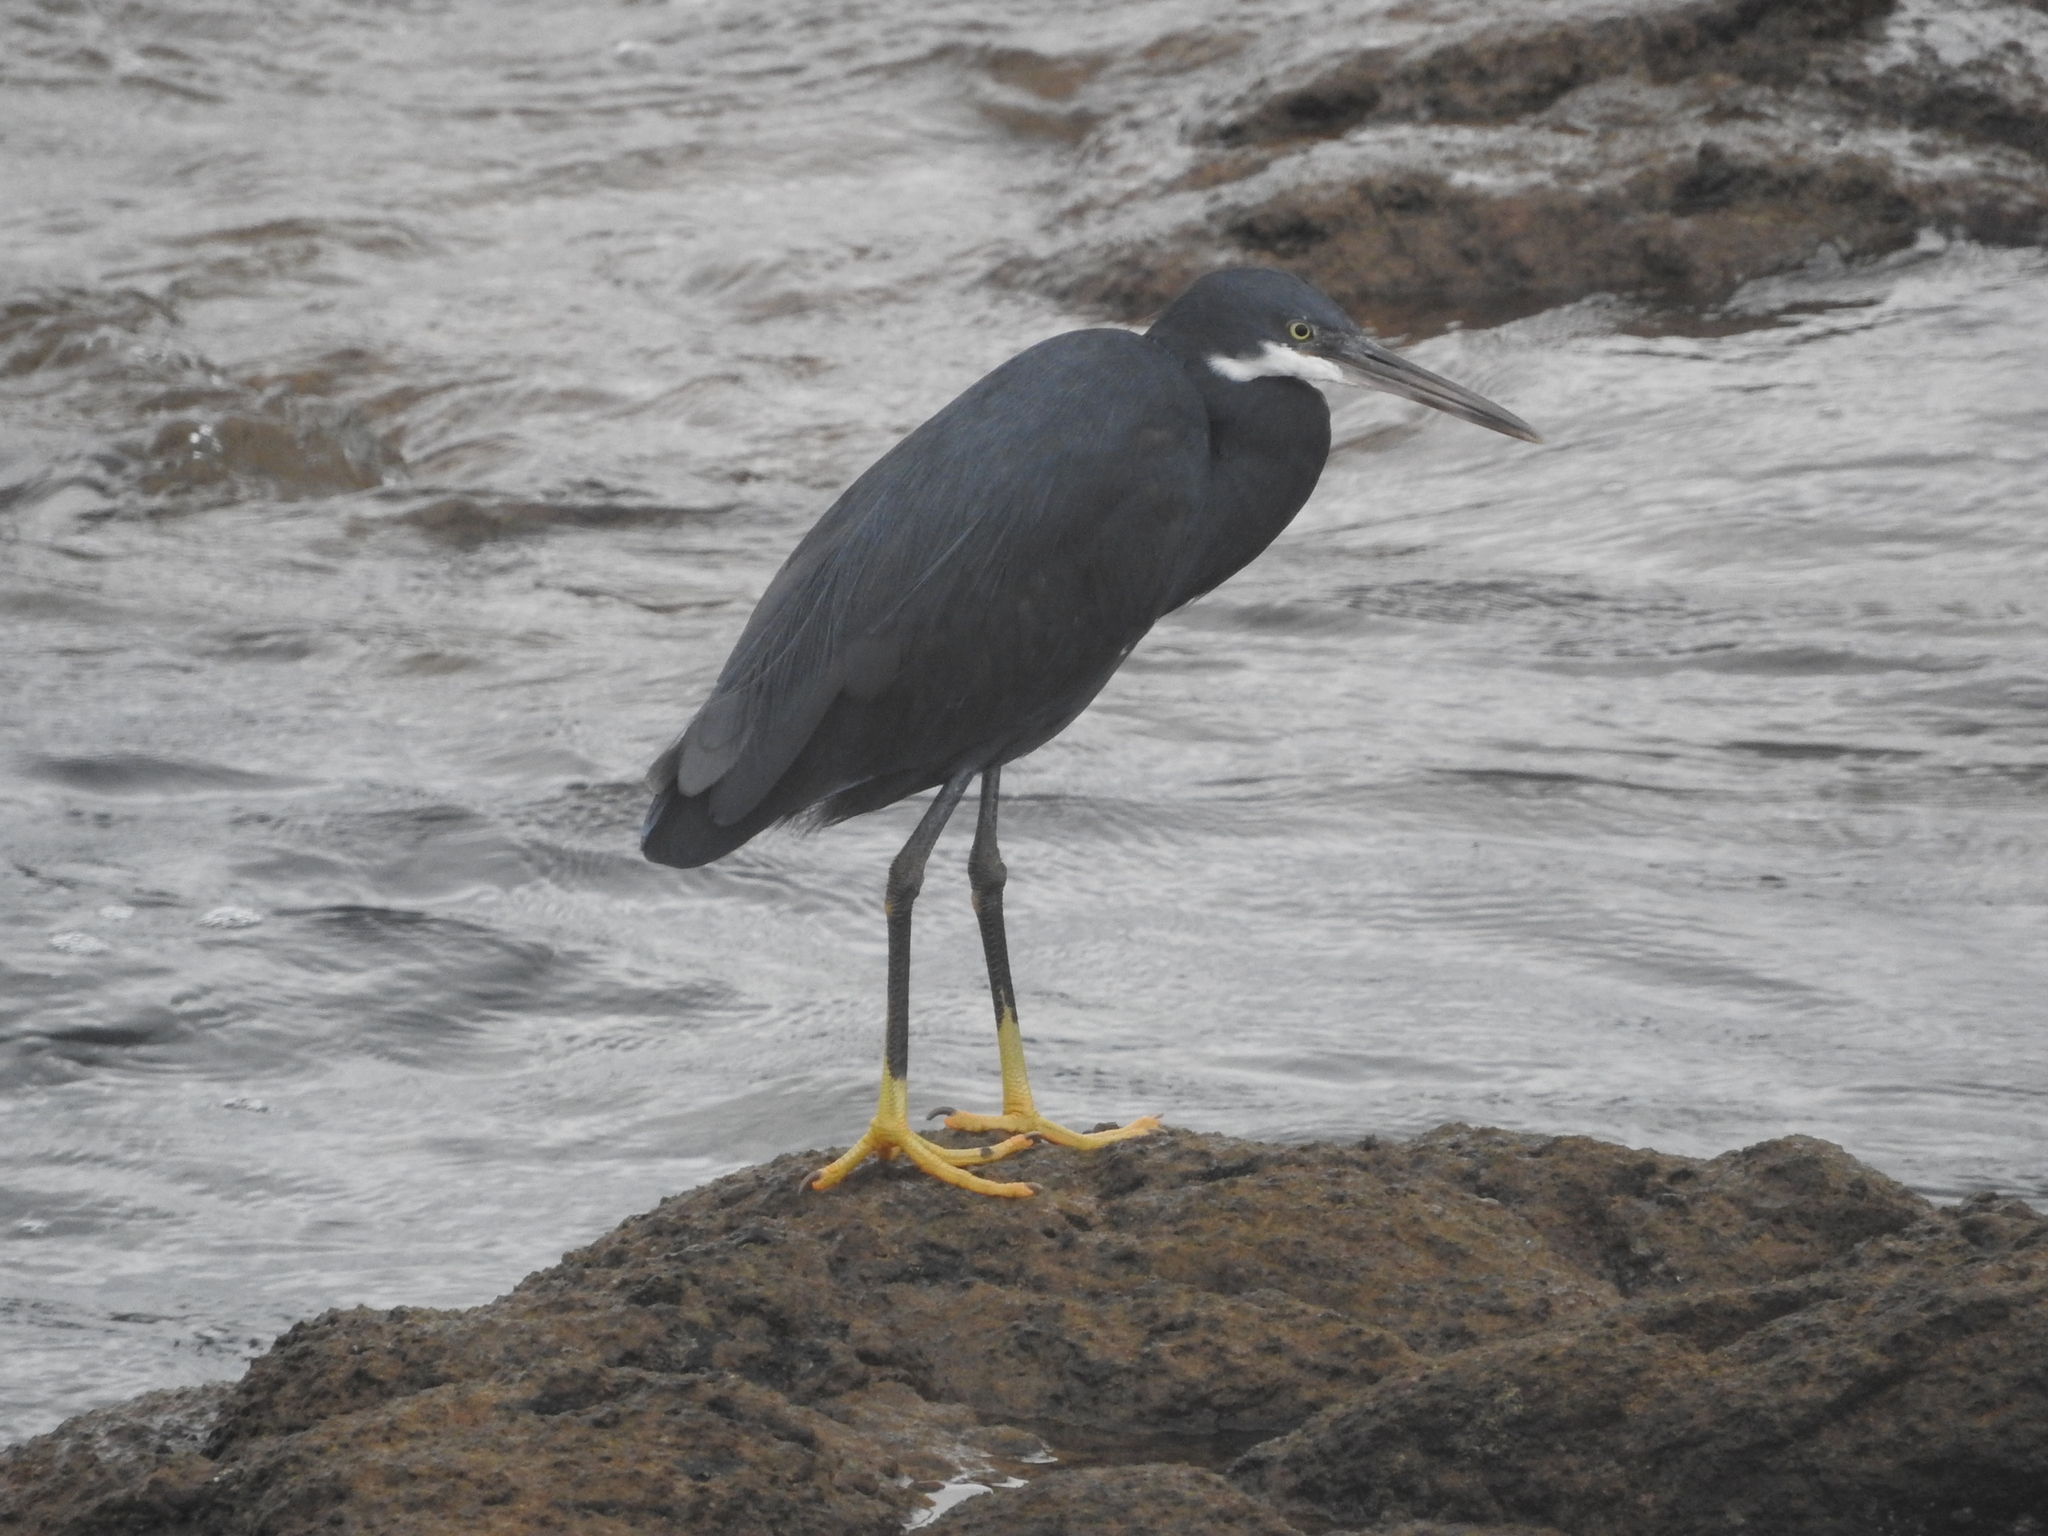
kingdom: Animalia
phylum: Chordata
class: Aves
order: Pelecaniformes
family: Ardeidae
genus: Egretta
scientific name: Egretta gularis
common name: Western reef-heron
